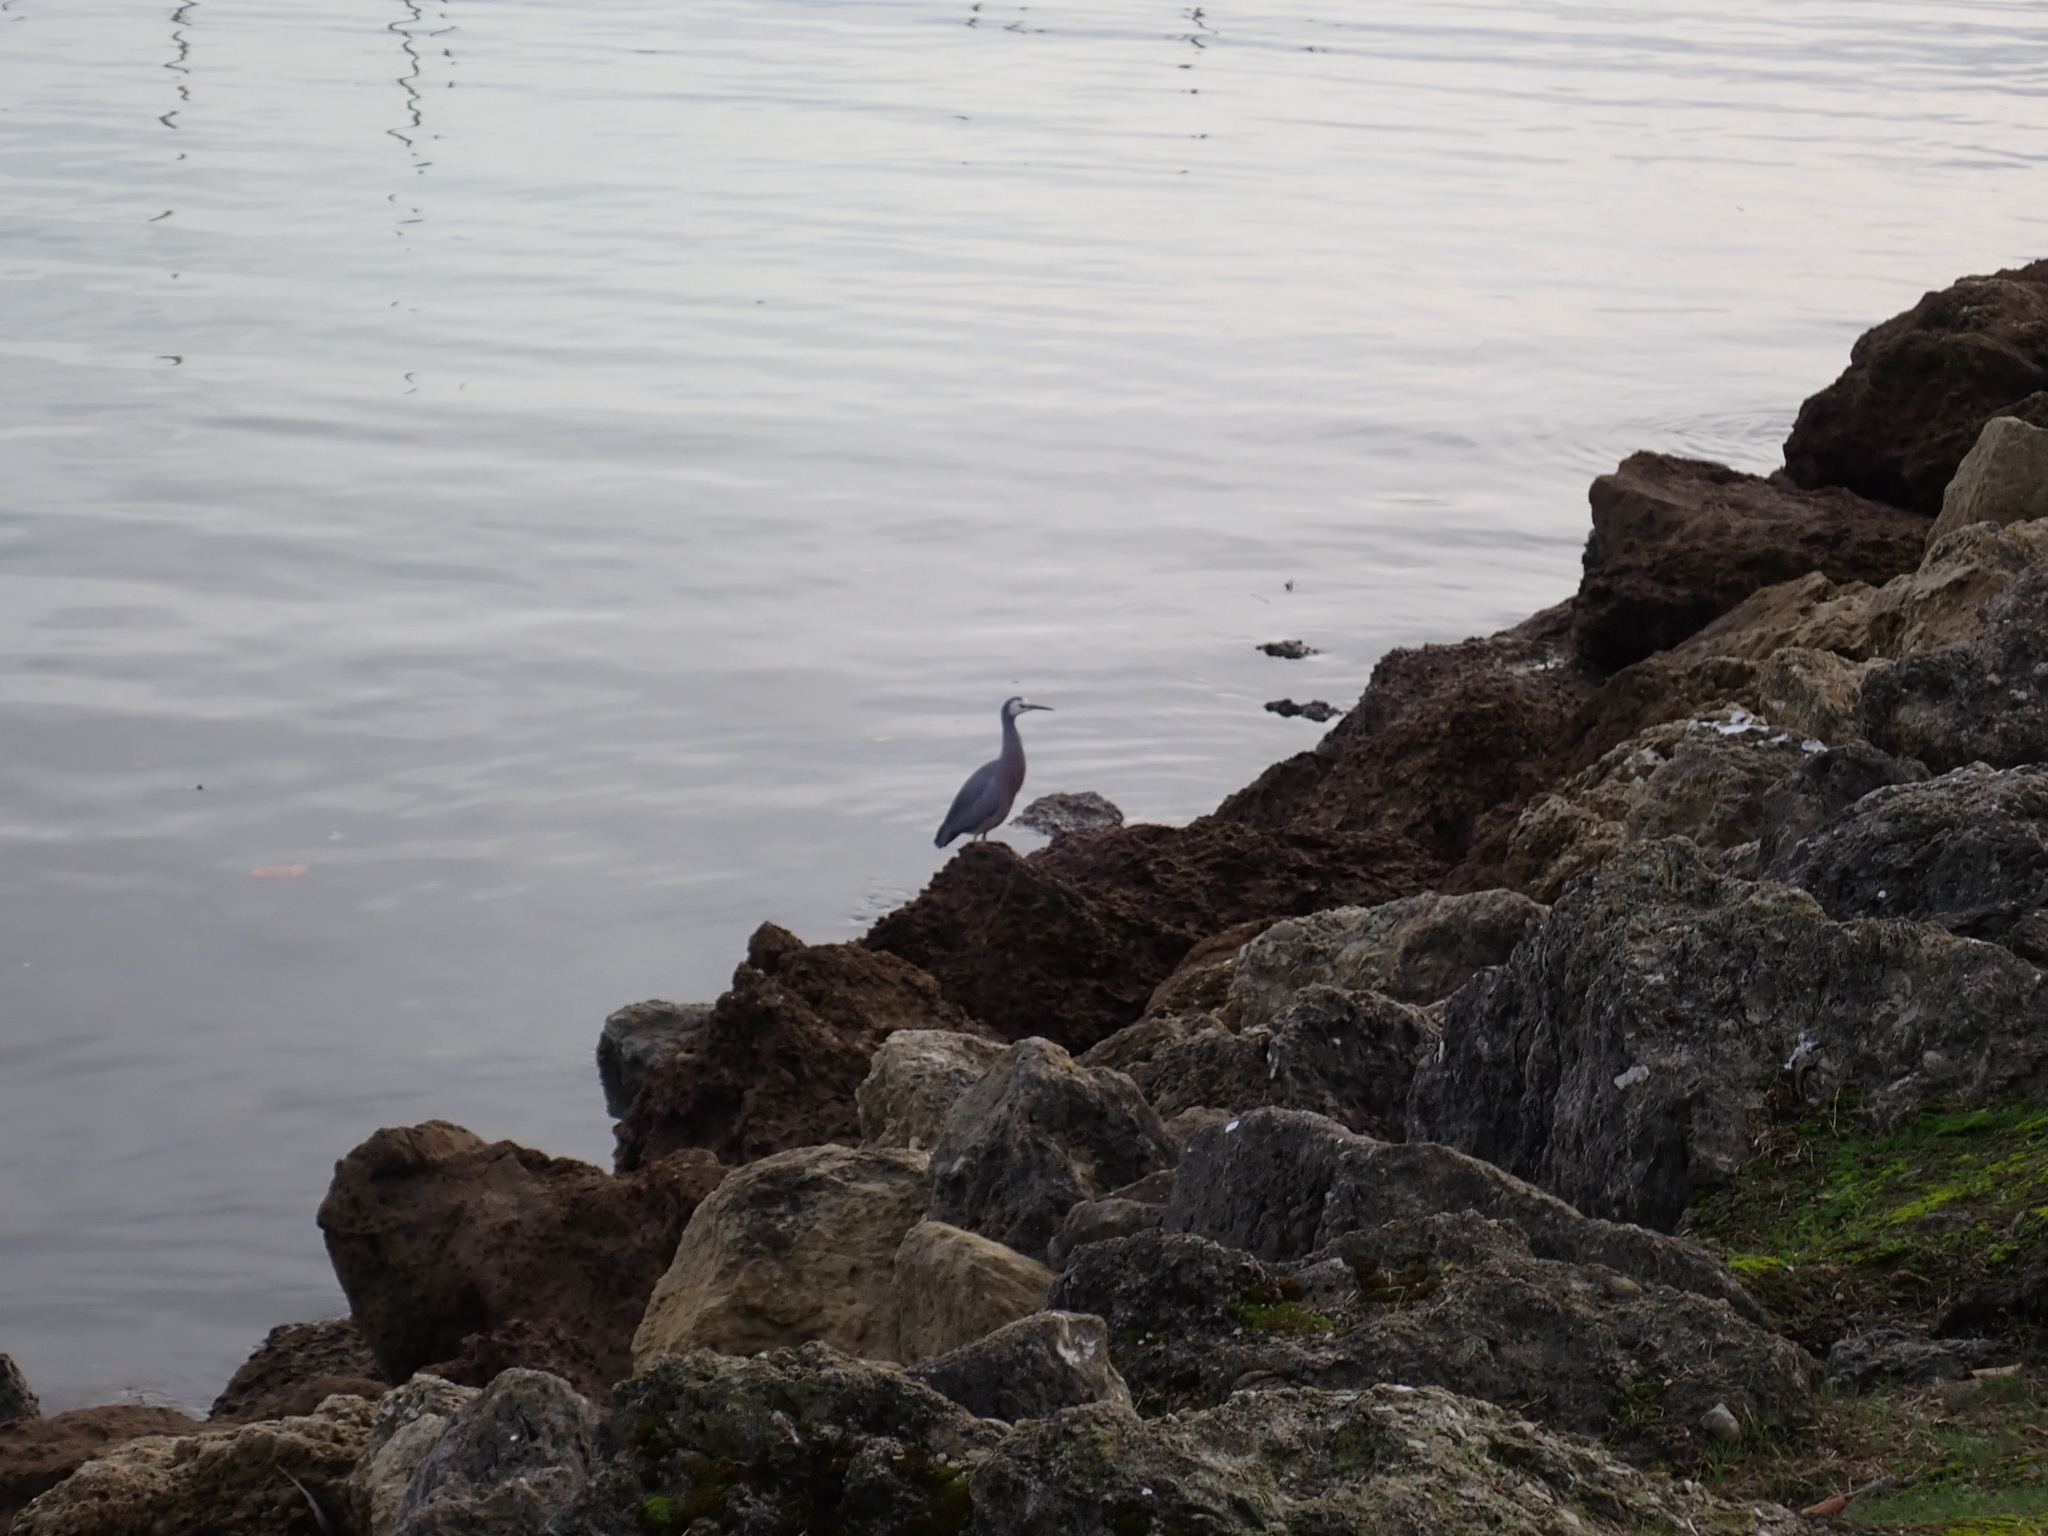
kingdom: Animalia
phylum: Chordata
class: Aves
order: Pelecaniformes
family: Ardeidae
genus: Egretta
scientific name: Egretta novaehollandiae
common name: White-faced heron
